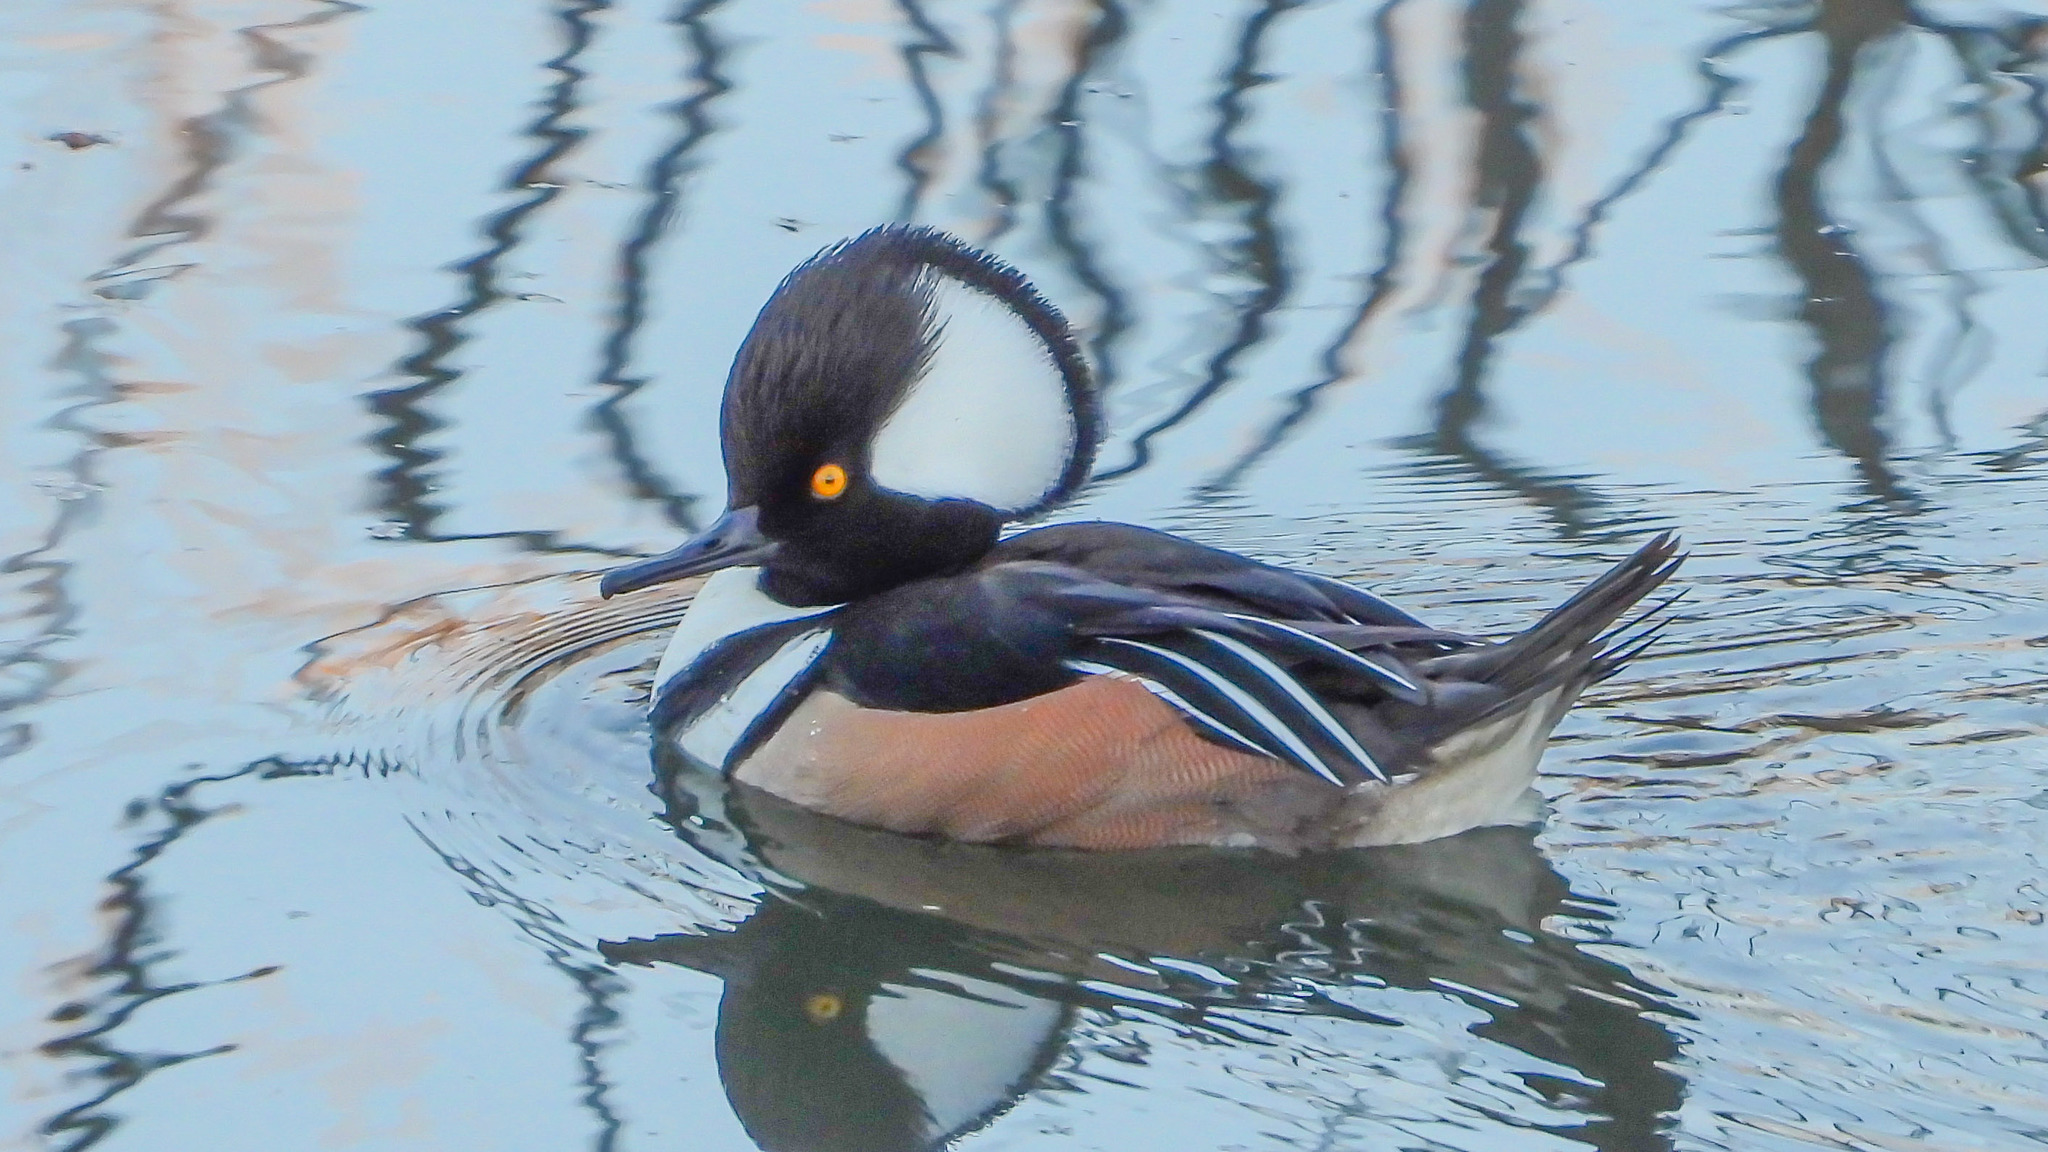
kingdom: Animalia
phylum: Chordata
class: Aves
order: Anseriformes
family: Anatidae
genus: Lophodytes
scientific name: Lophodytes cucullatus
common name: Hooded merganser
